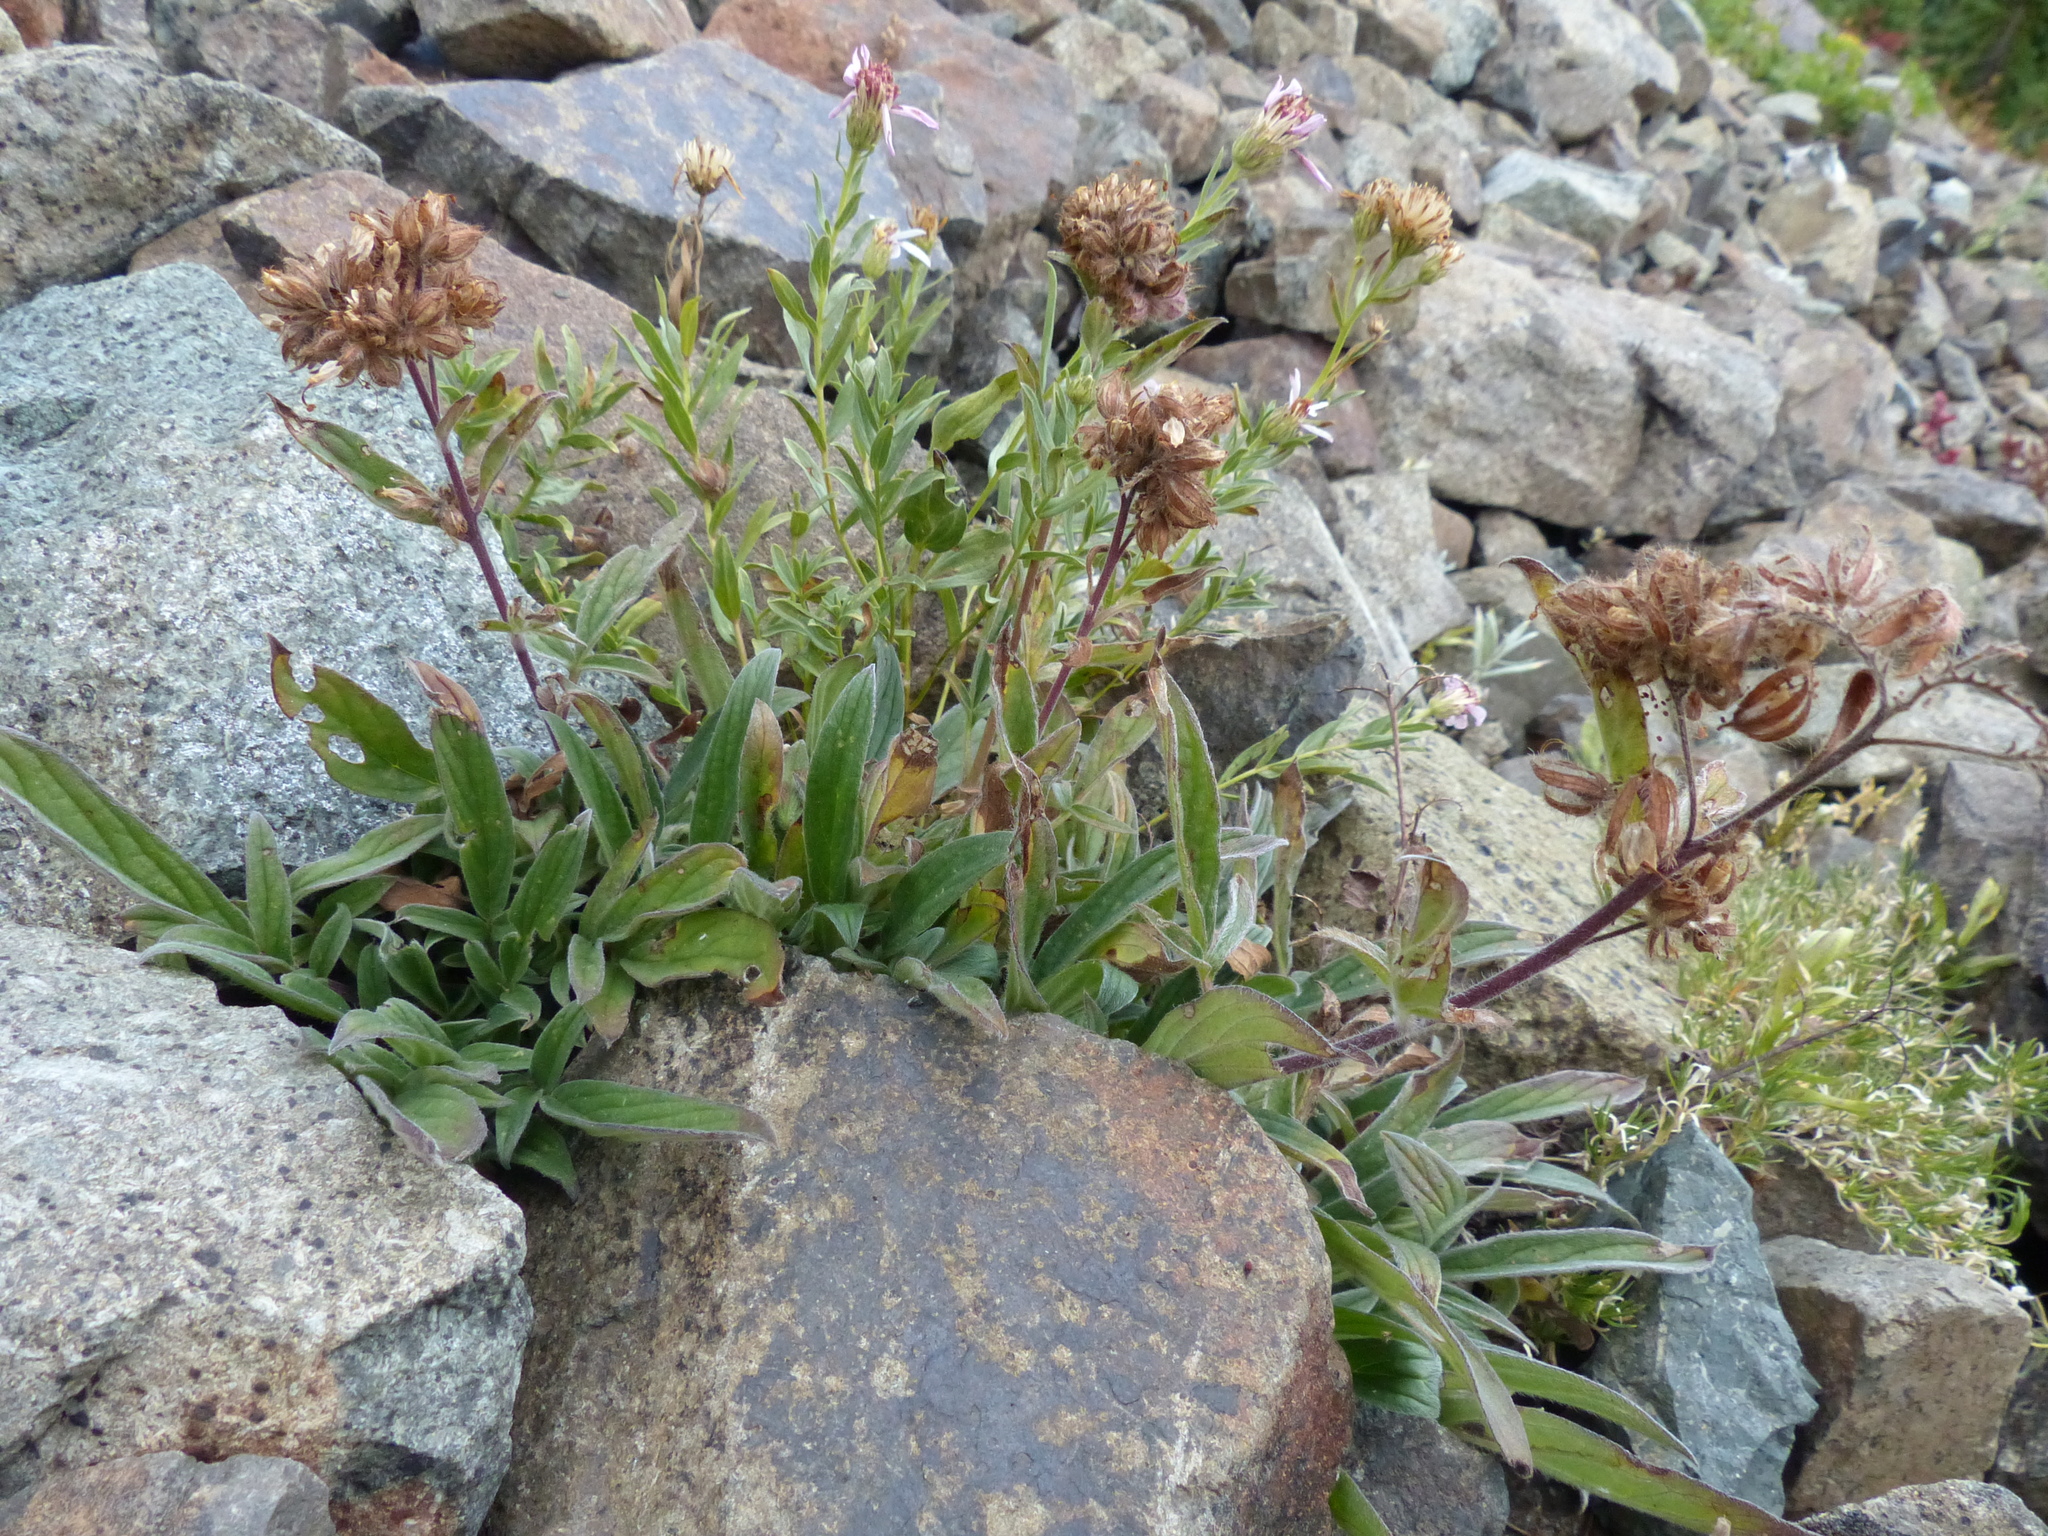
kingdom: Plantae
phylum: Tracheophyta
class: Magnoliopsida
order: Boraginales
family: Hydrophyllaceae
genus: Phacelia
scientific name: Phacelia leptosepala
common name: Narrow-sepaled phacelia
